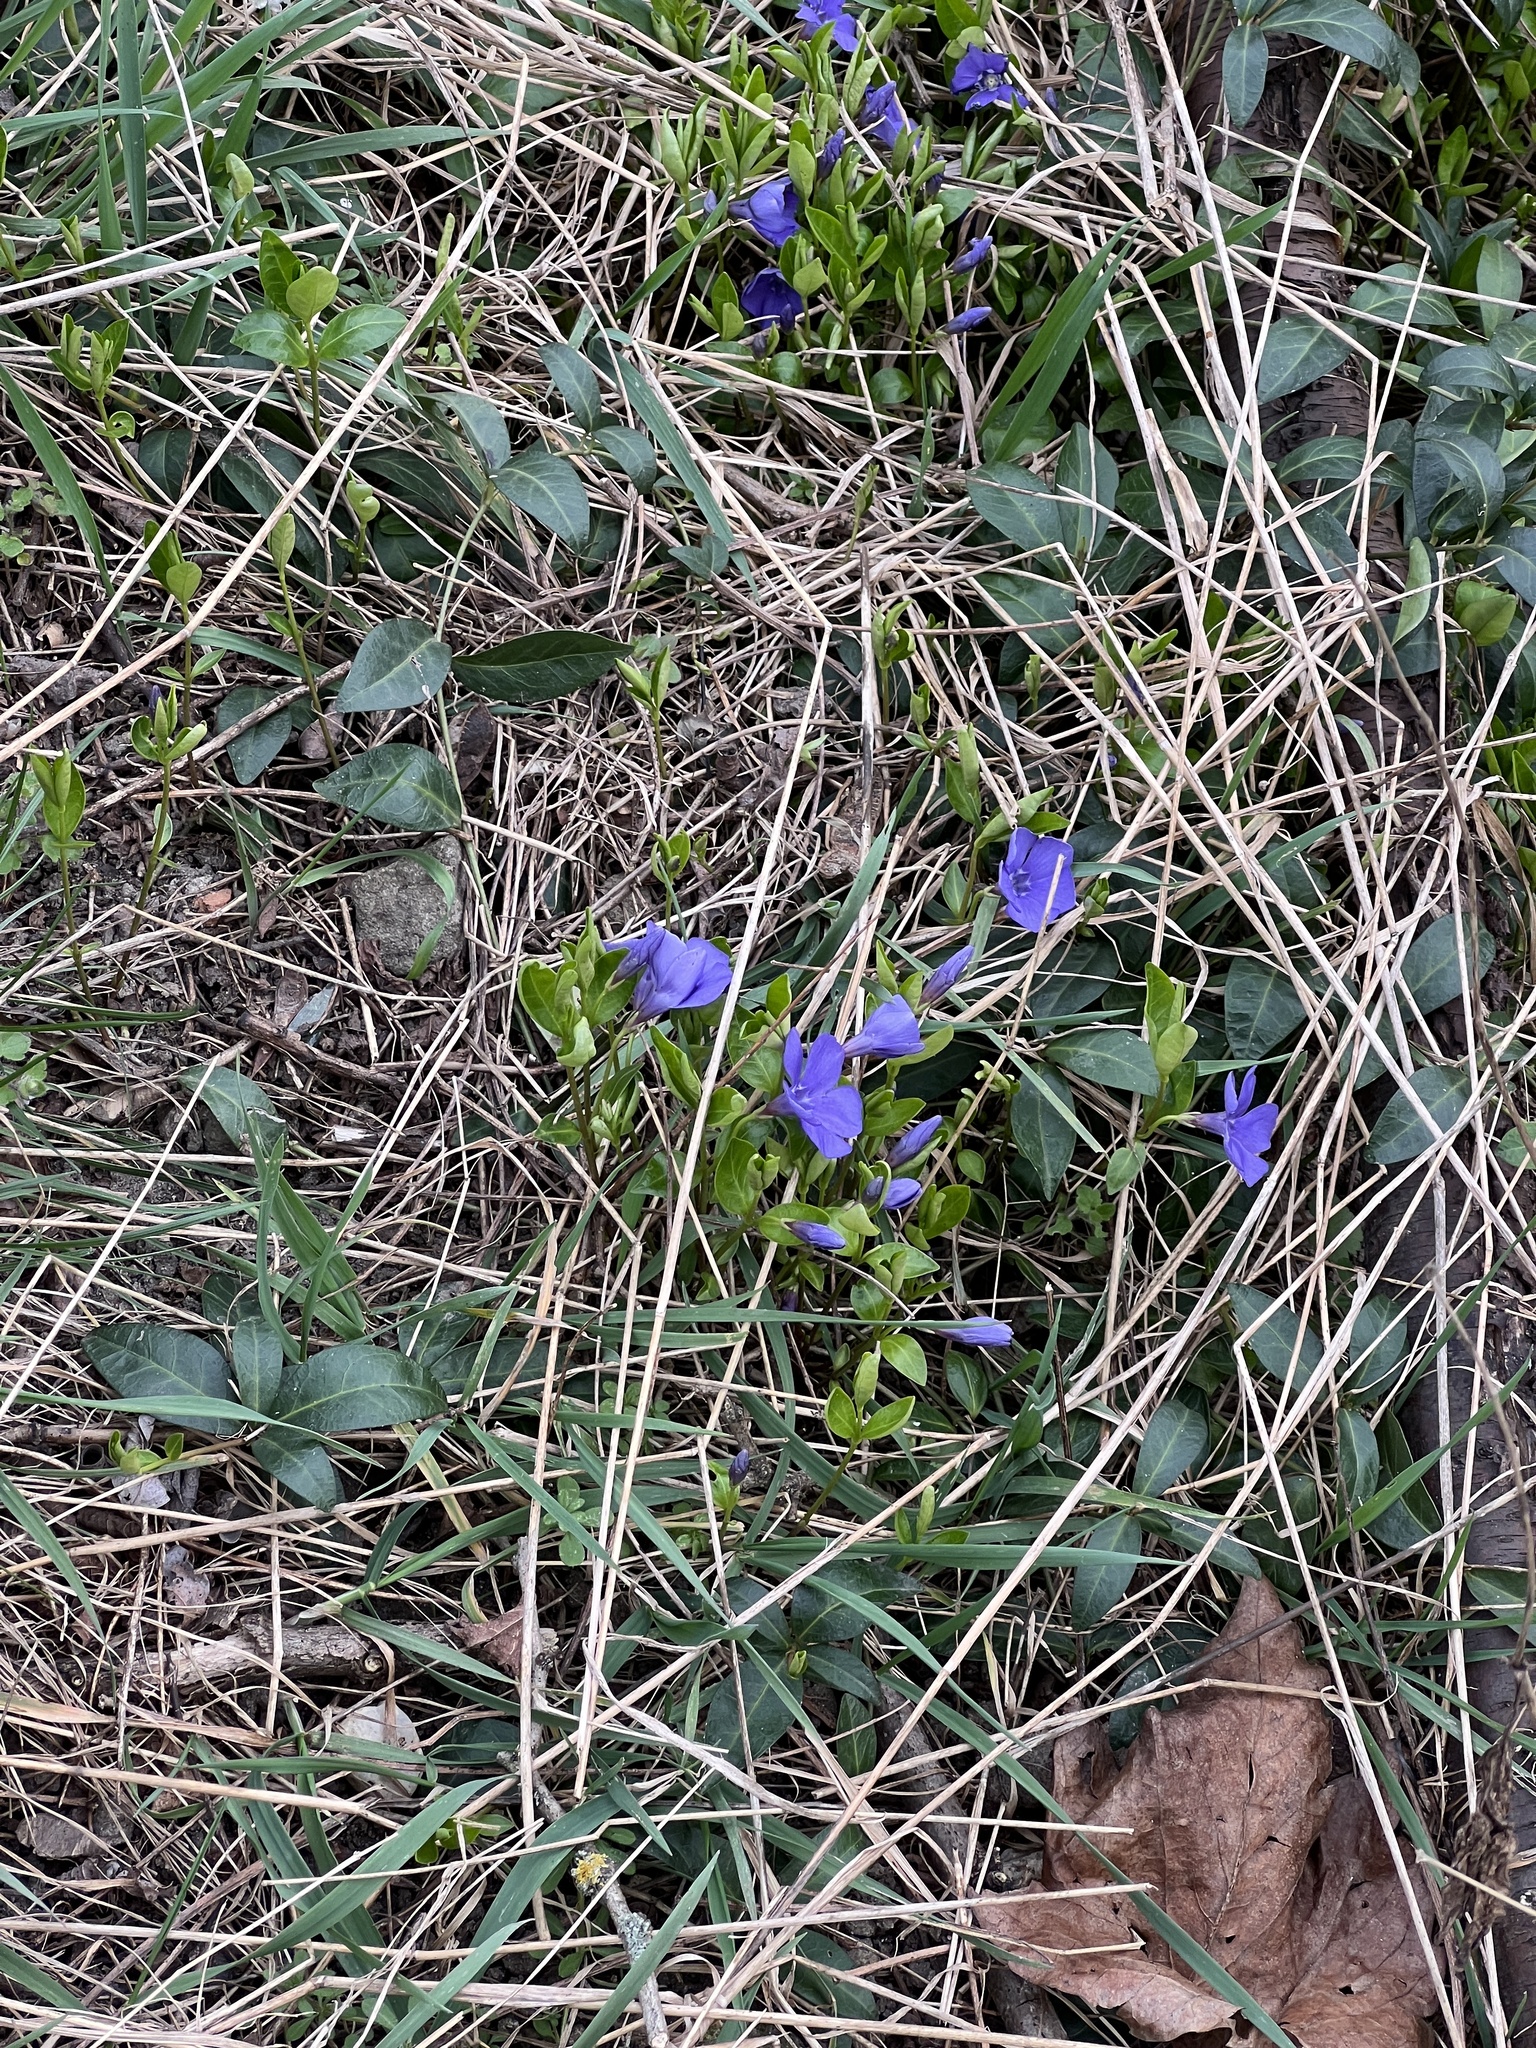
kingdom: Plantae
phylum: Tracheophyta
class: Magnoliopsida
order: Gentianales
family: Apocynaceae
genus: Vinca
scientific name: Vinca minor
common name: Lesser periwinkle
